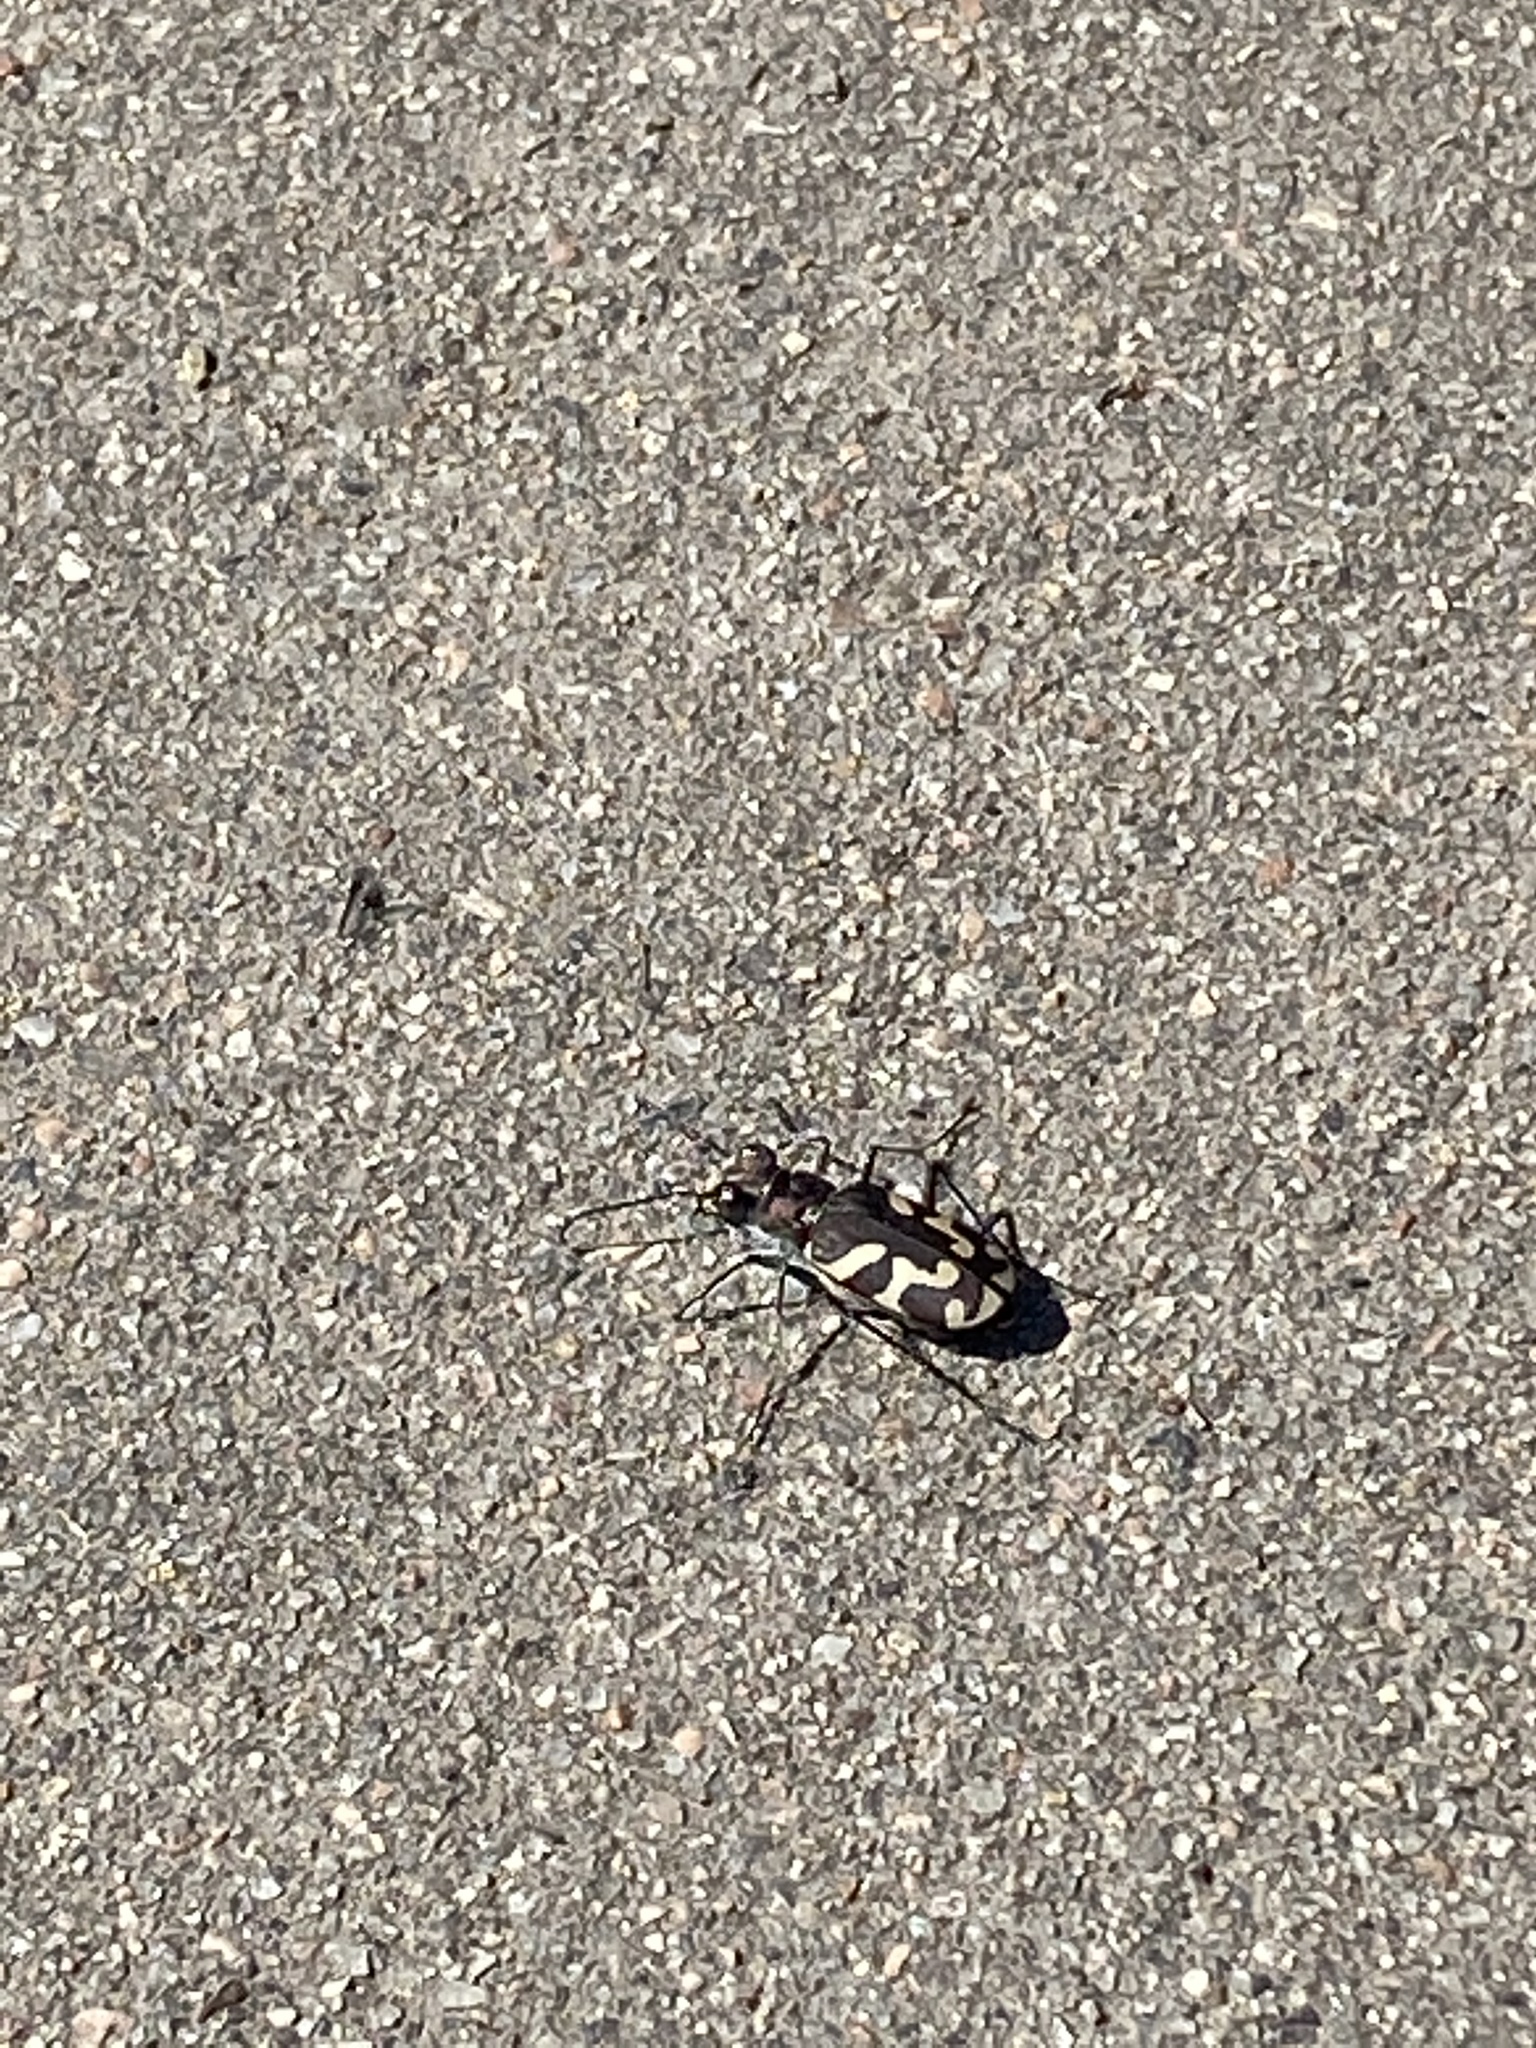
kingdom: Animalia
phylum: Arthropoda
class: Insecta
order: Coleoptera
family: Carabidae
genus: Cicindela
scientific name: Cicindela tranquebarica
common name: Oblique-lined tiger beetle
